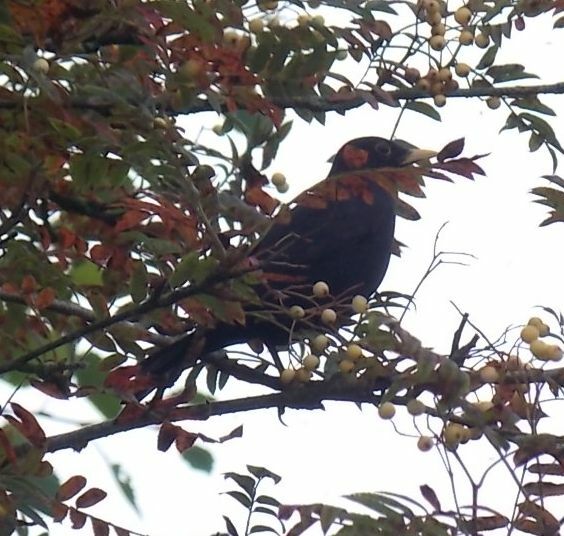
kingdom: Animalia
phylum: Chordata
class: Aves
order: Passeriformes
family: Turdidae
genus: Turdus
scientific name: Turdus merula
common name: Common blackbird
